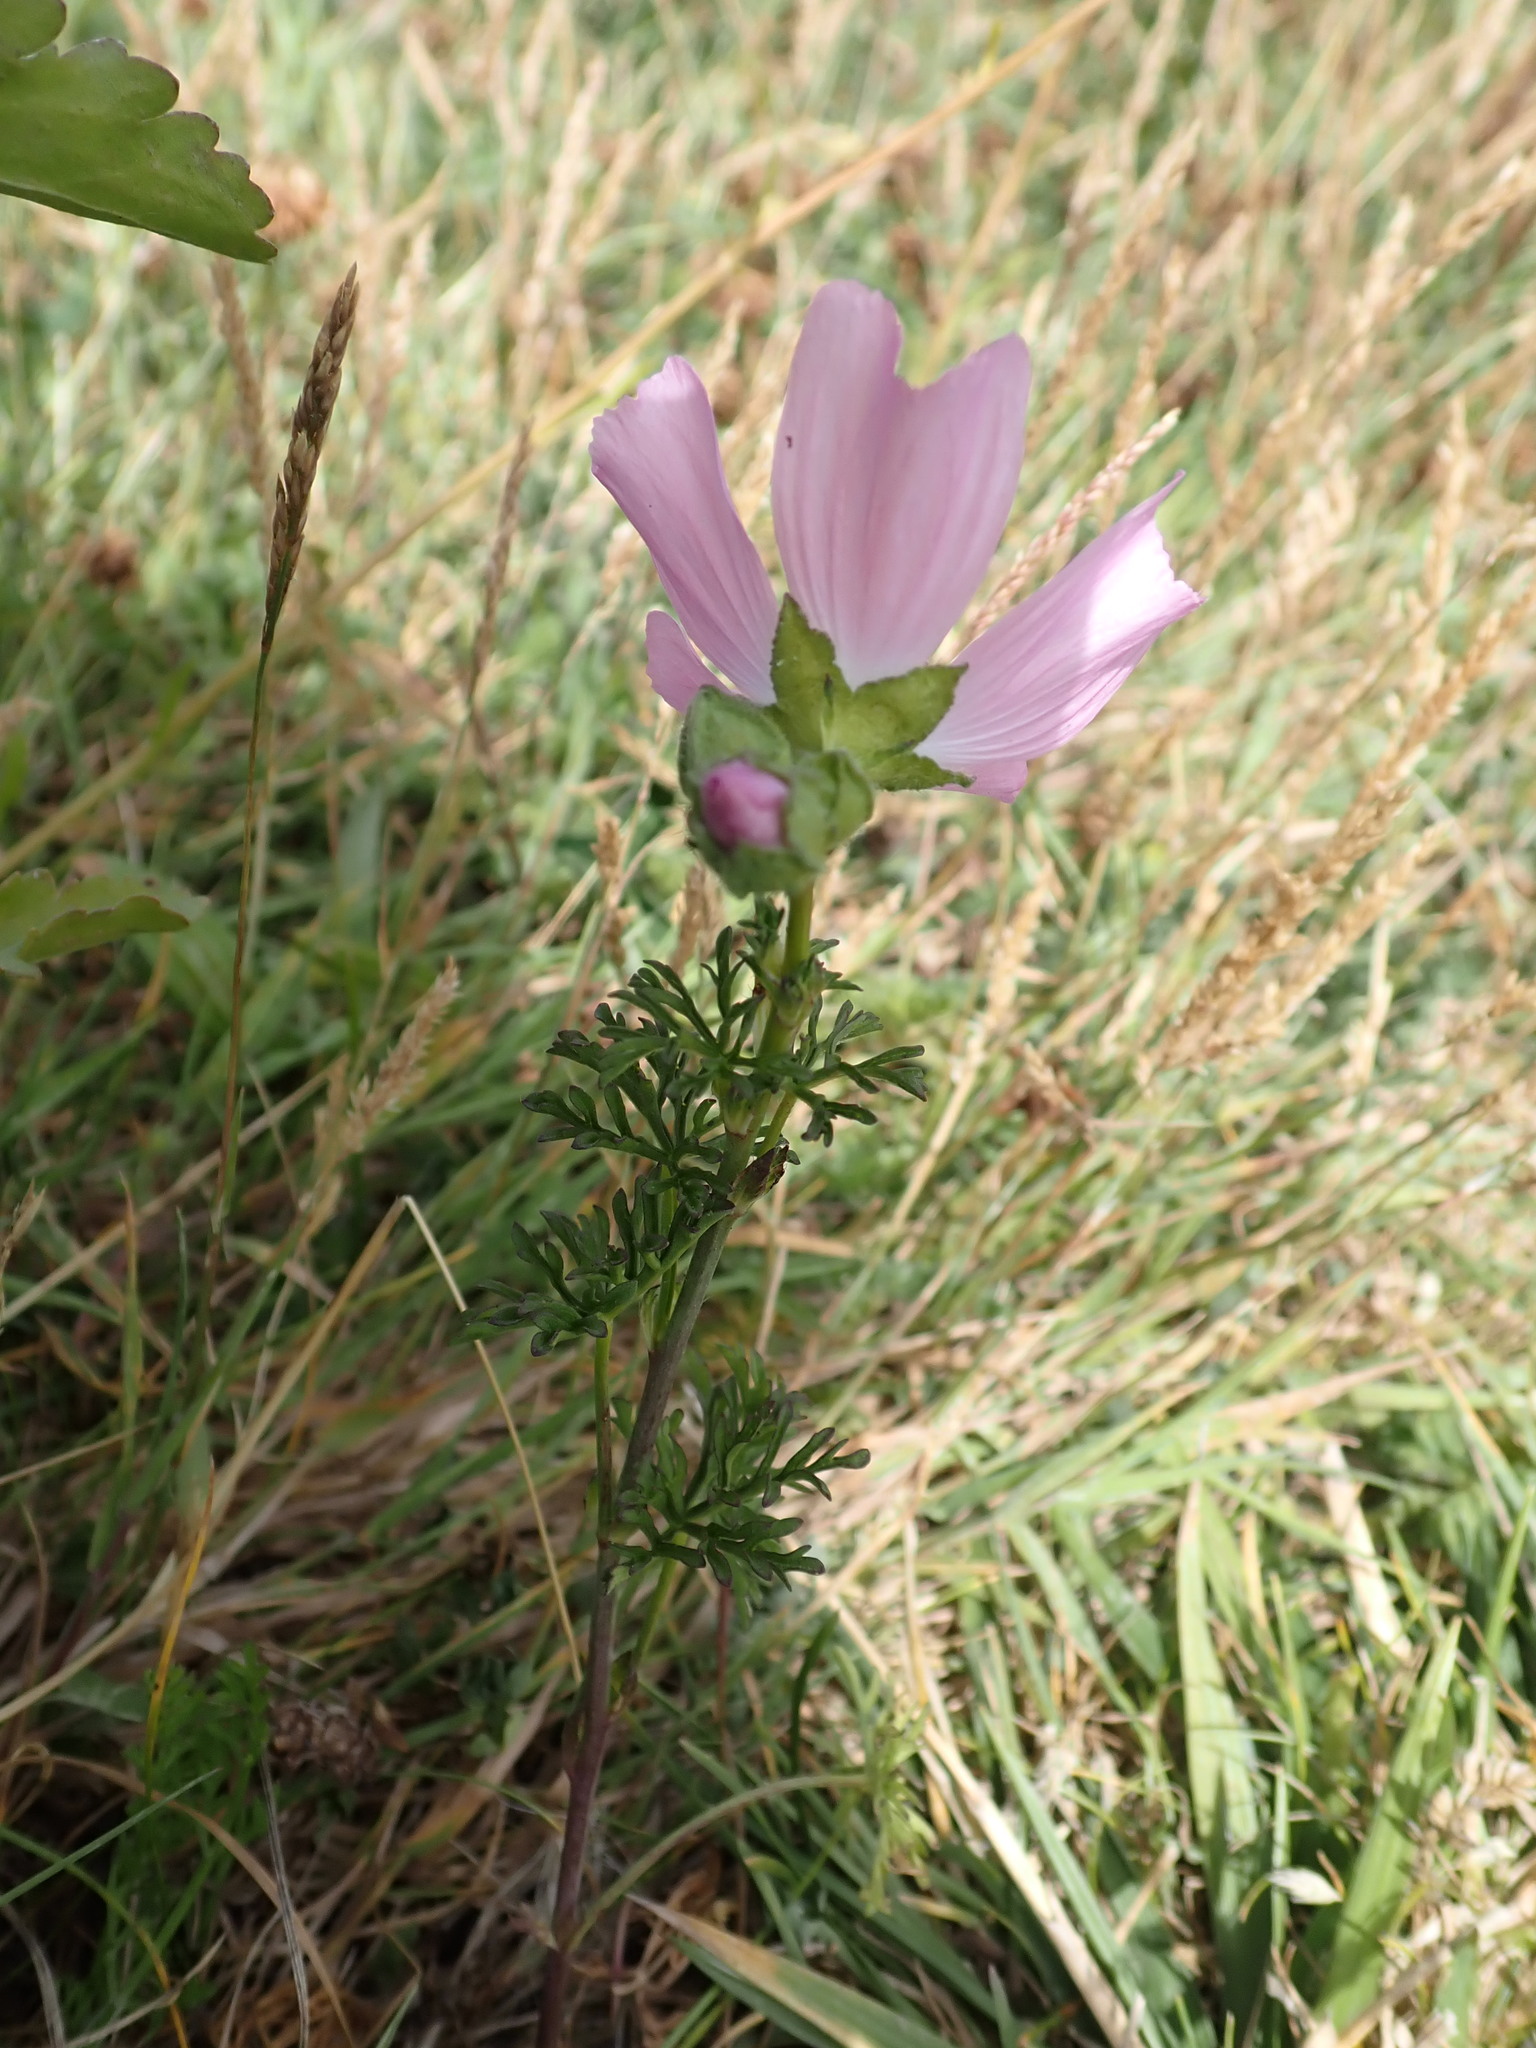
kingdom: Plantae
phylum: Tracheophyta
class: Magnoliopsida
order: Malvales
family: Malvaceae
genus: Malva
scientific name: Malva moschata
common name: Musk mallow
